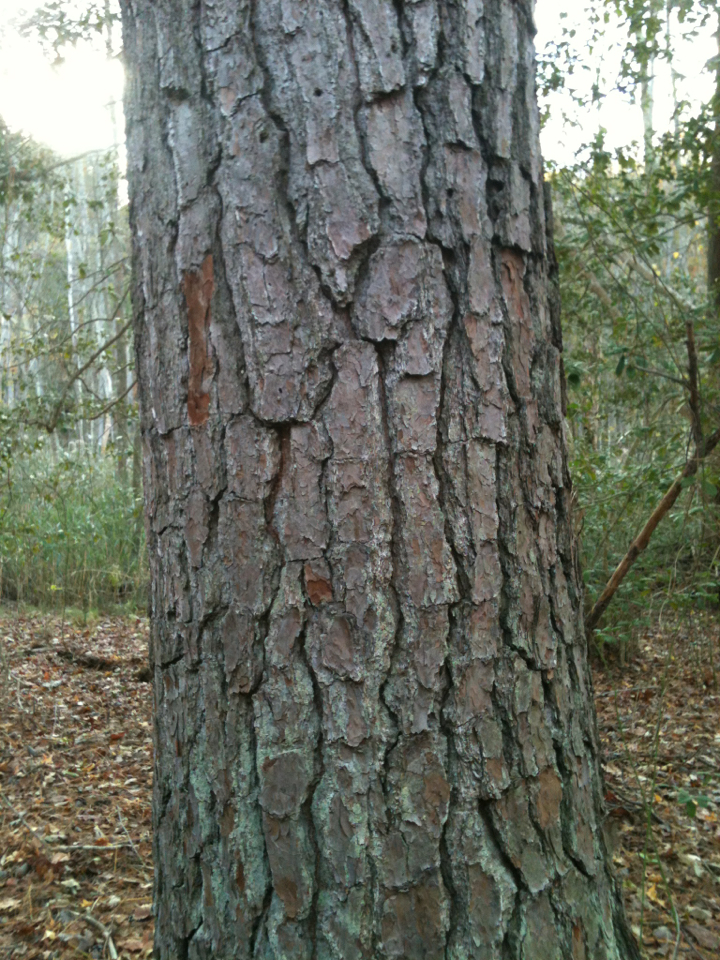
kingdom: Plantae
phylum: Tracheophyta
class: Pinopsida
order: Pinales
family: Pinaceae
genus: Pinus
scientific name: Pinus taeda
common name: Loblolly pine
